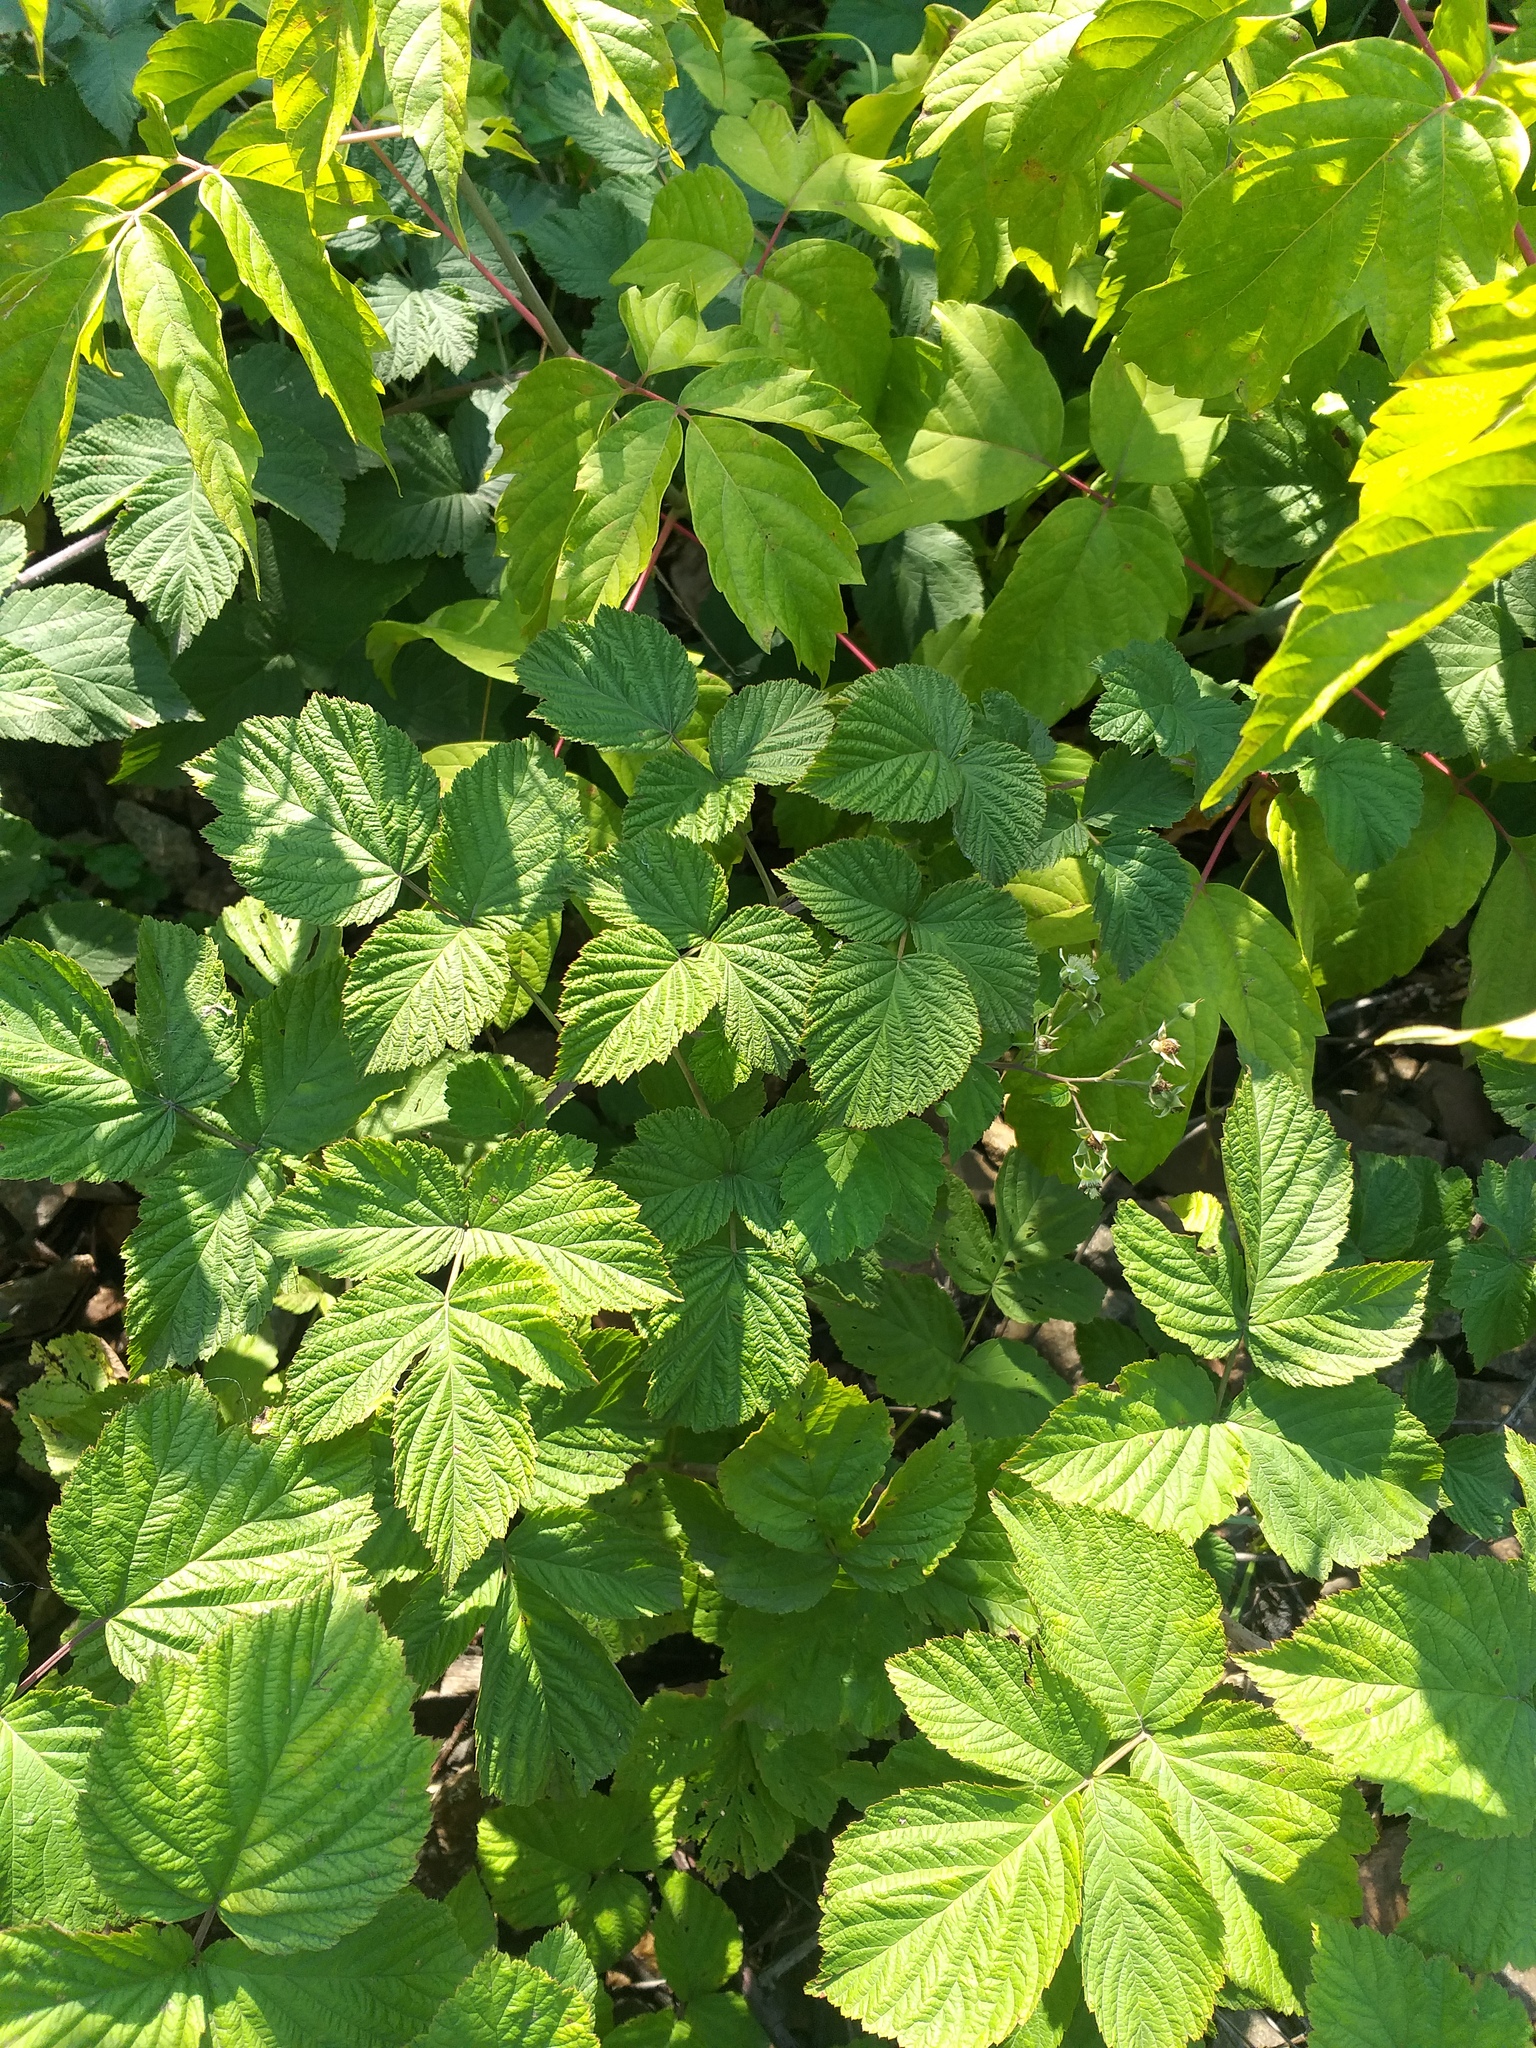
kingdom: Plantae
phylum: Tracheophyta
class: Magnoliopsida
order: Rosales
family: Rosaceae
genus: Rubus
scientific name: Rubus idaeoides
